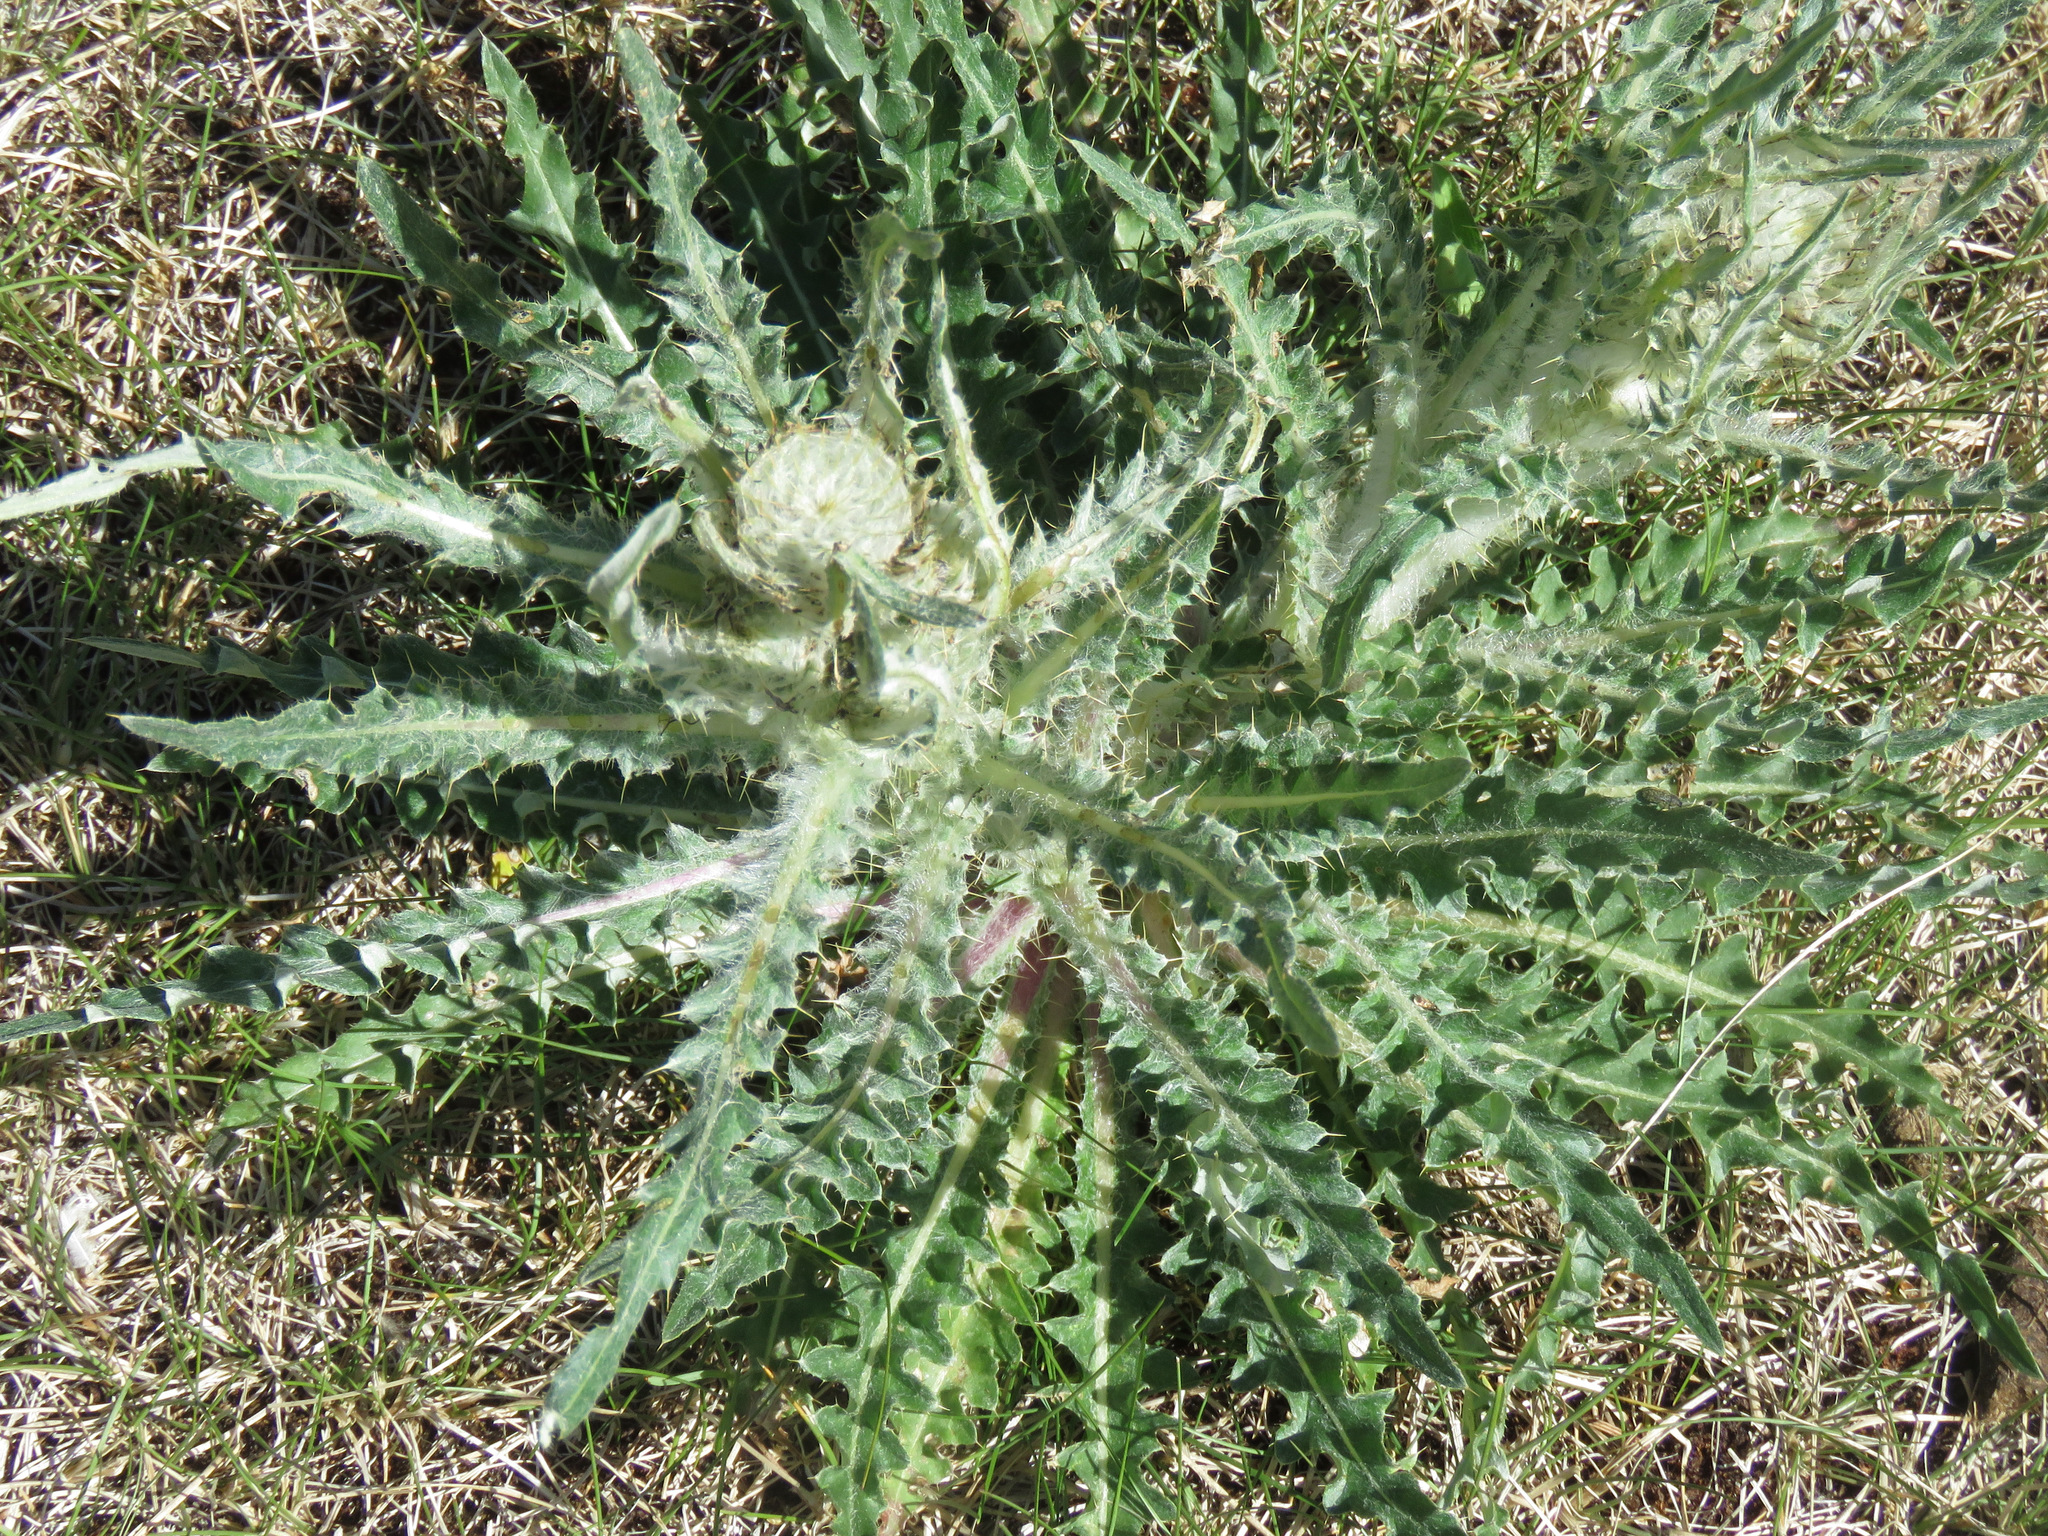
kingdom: Plantae
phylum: Tracheophyta
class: Magnoliopsida
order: Asterales
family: Asteraceae
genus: Cirsium
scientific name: Cirsium hookerianum
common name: Hooker's thistle
